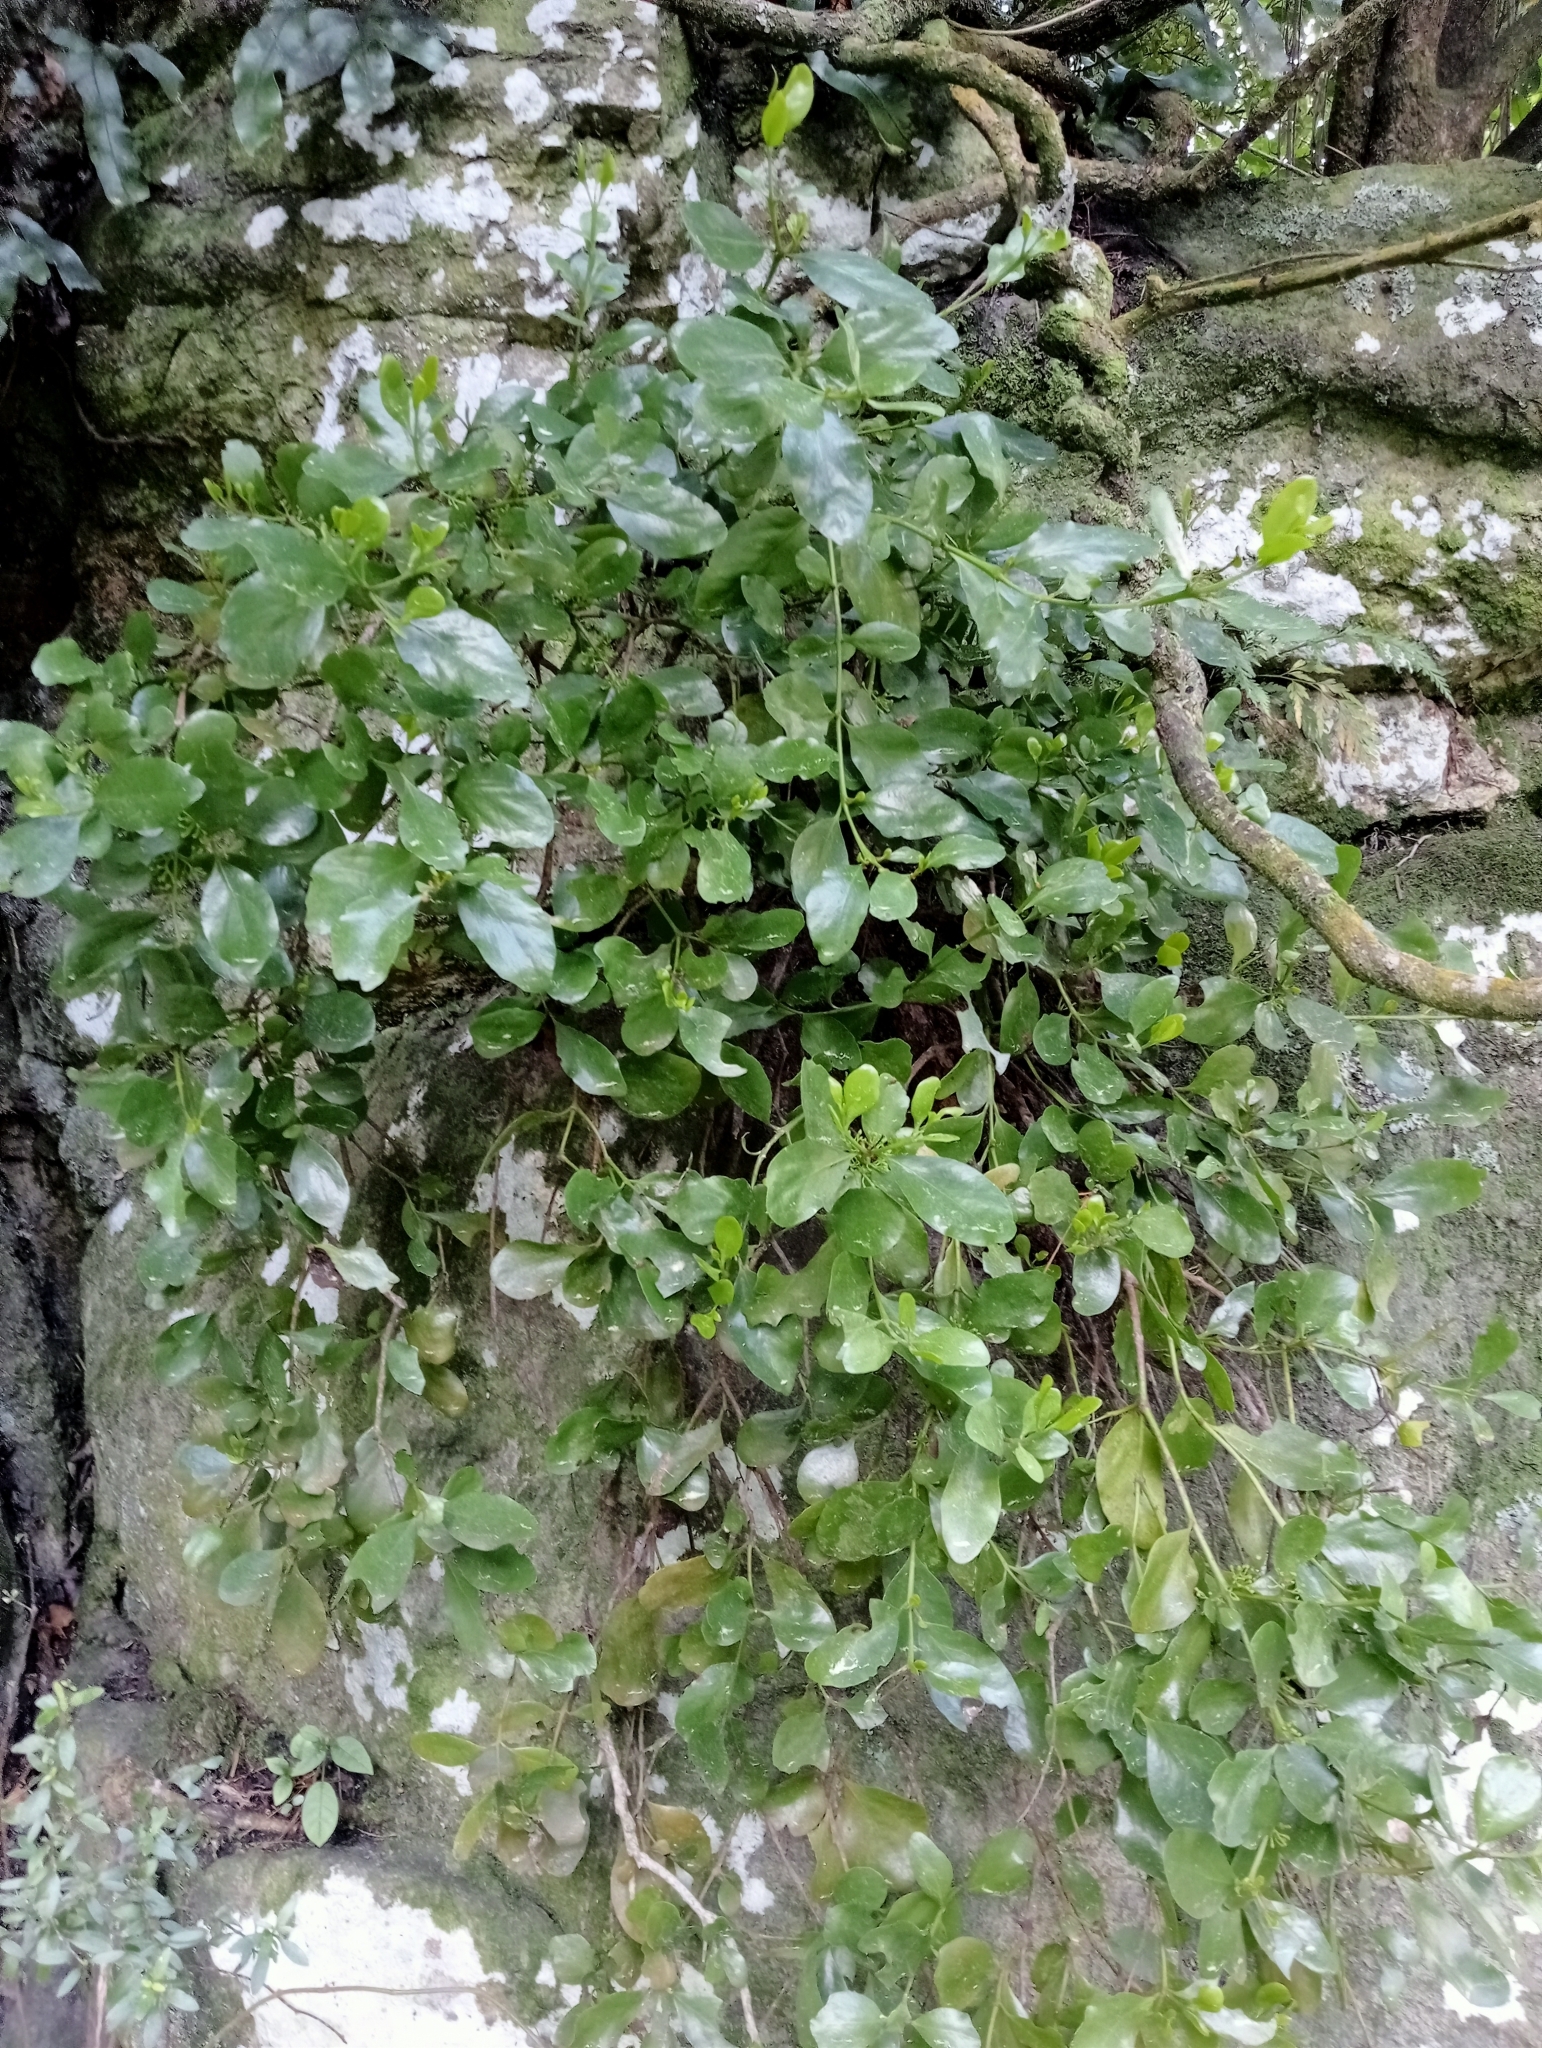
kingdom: Plantae
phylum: Tracheophyta
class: Magnoliopsida
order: Santalales
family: Loranthaceae
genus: Ileostylus
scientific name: Ileostylus micranthus
